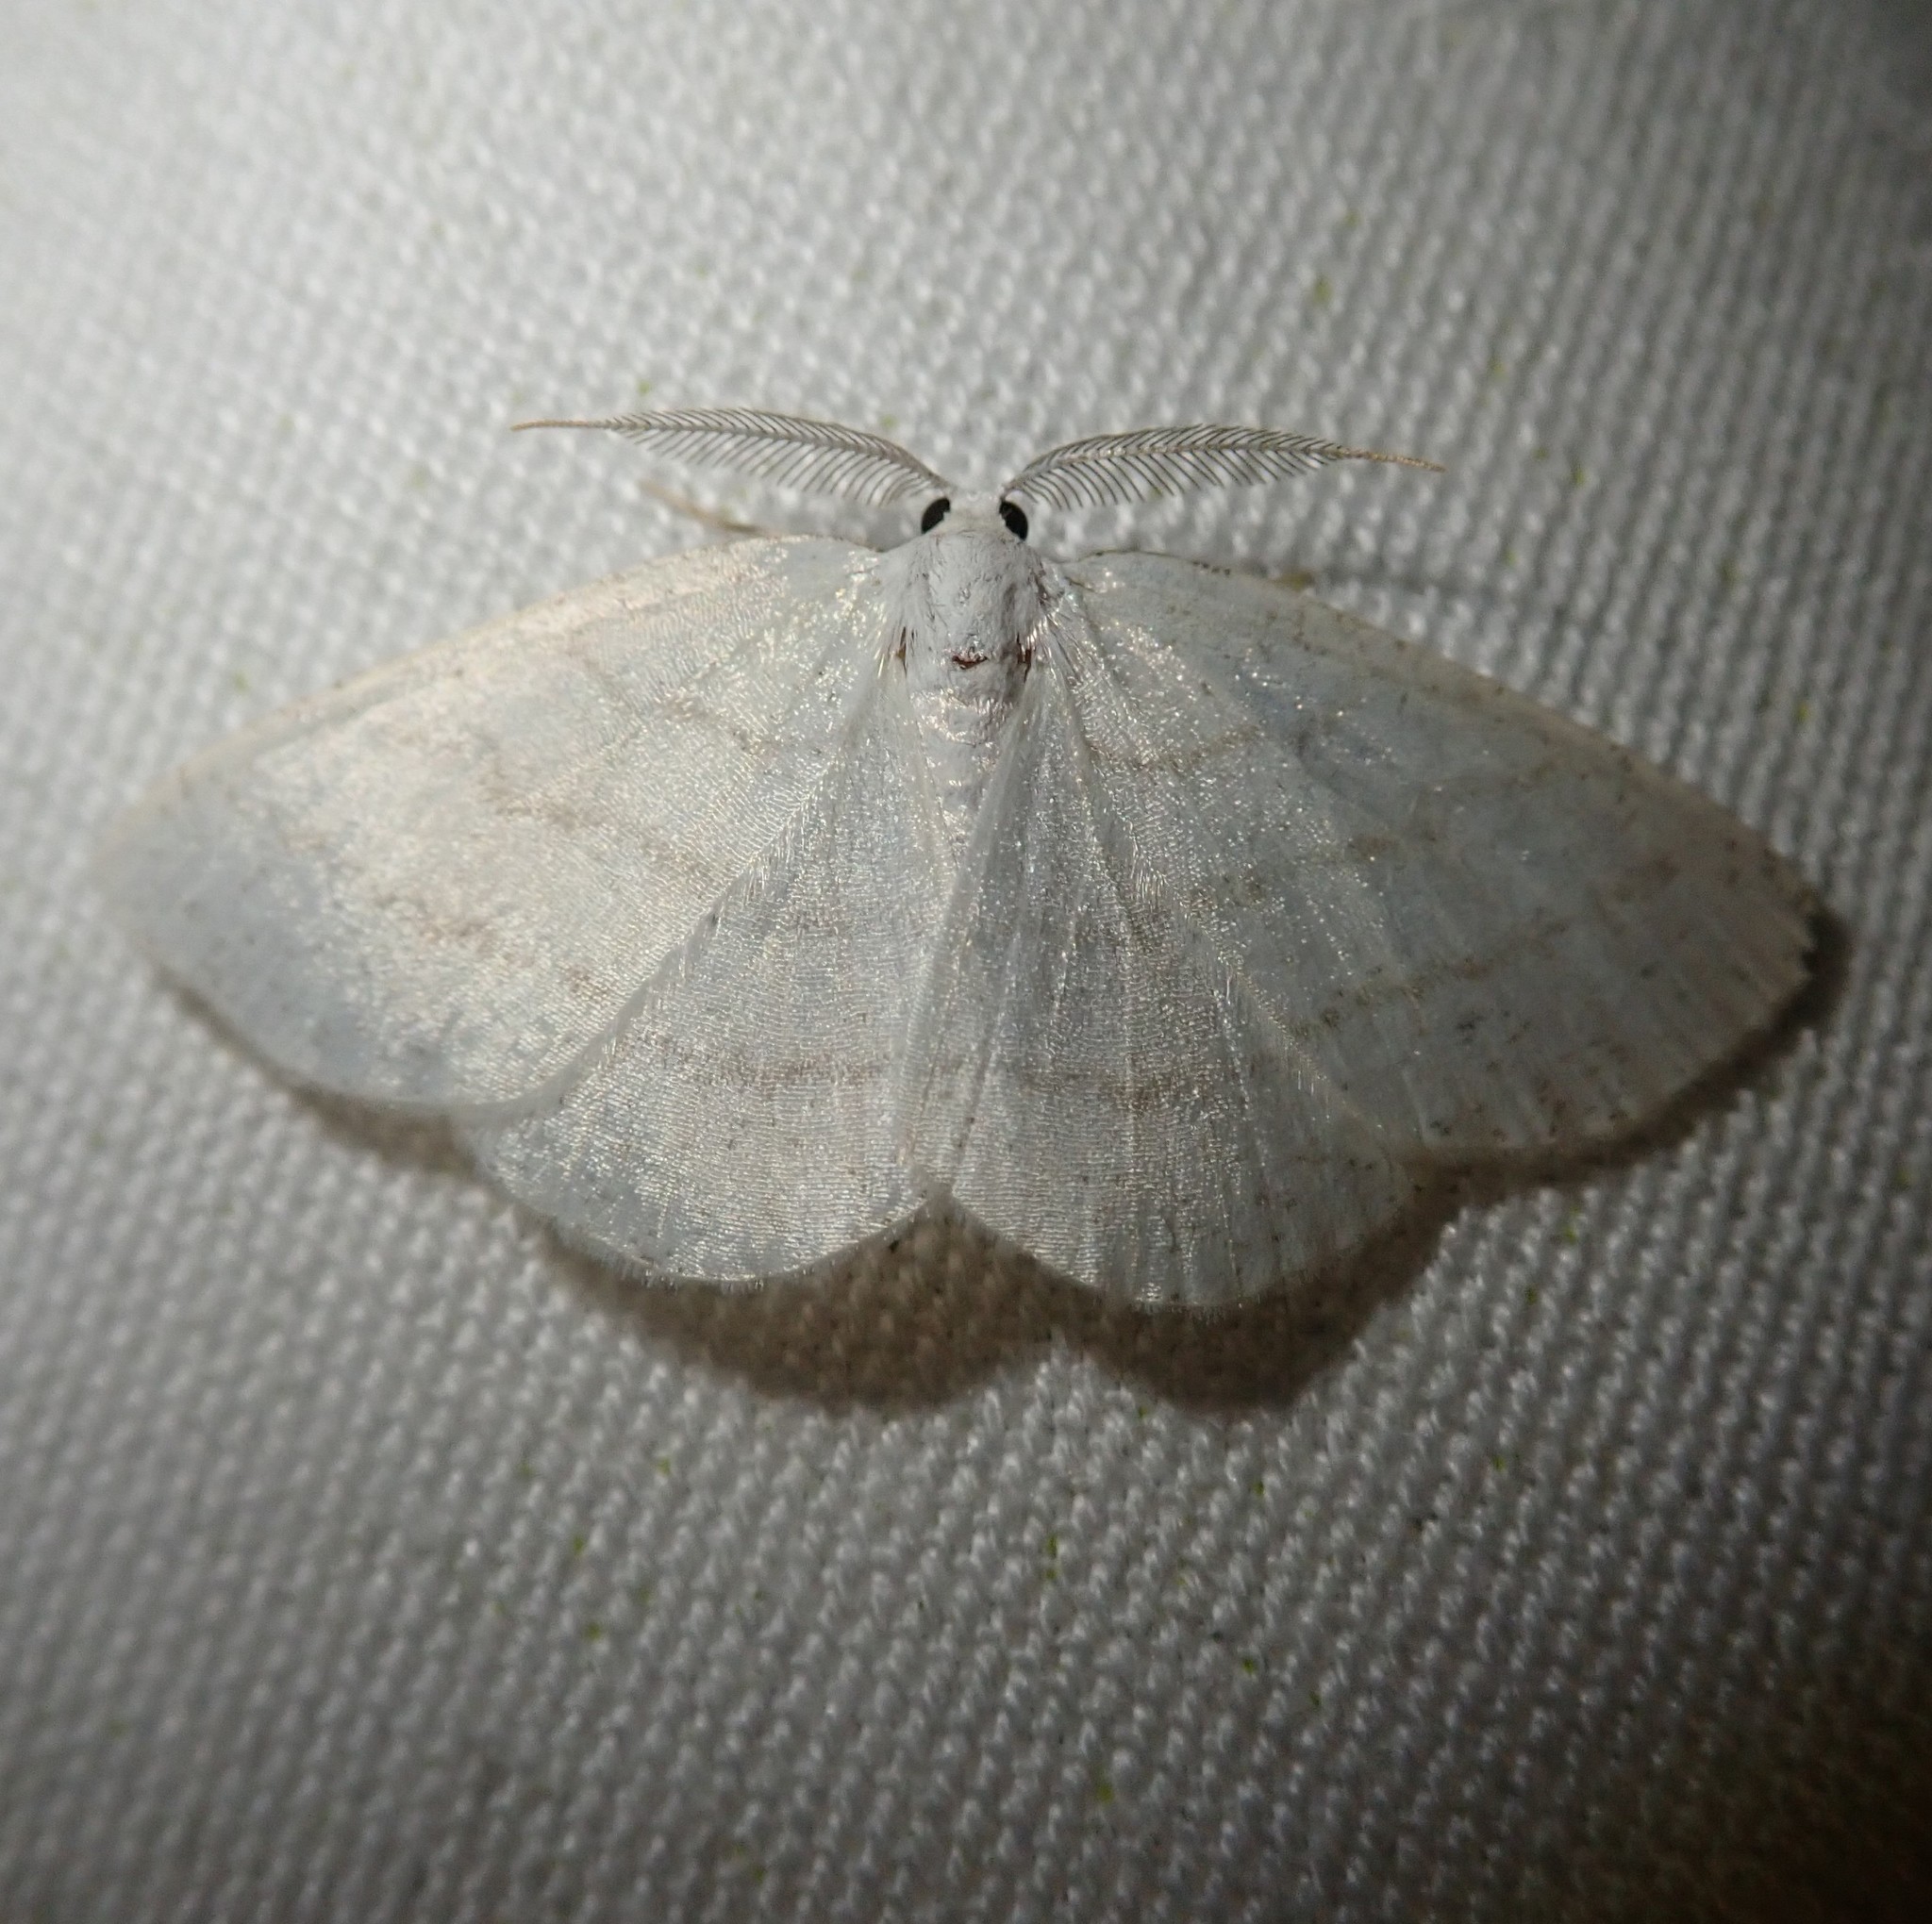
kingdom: Animalia
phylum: Arthropoda
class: Insecta
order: Lepidoptera
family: Geometridae
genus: Cabera
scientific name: Cabera pusaria
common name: Common white wave
